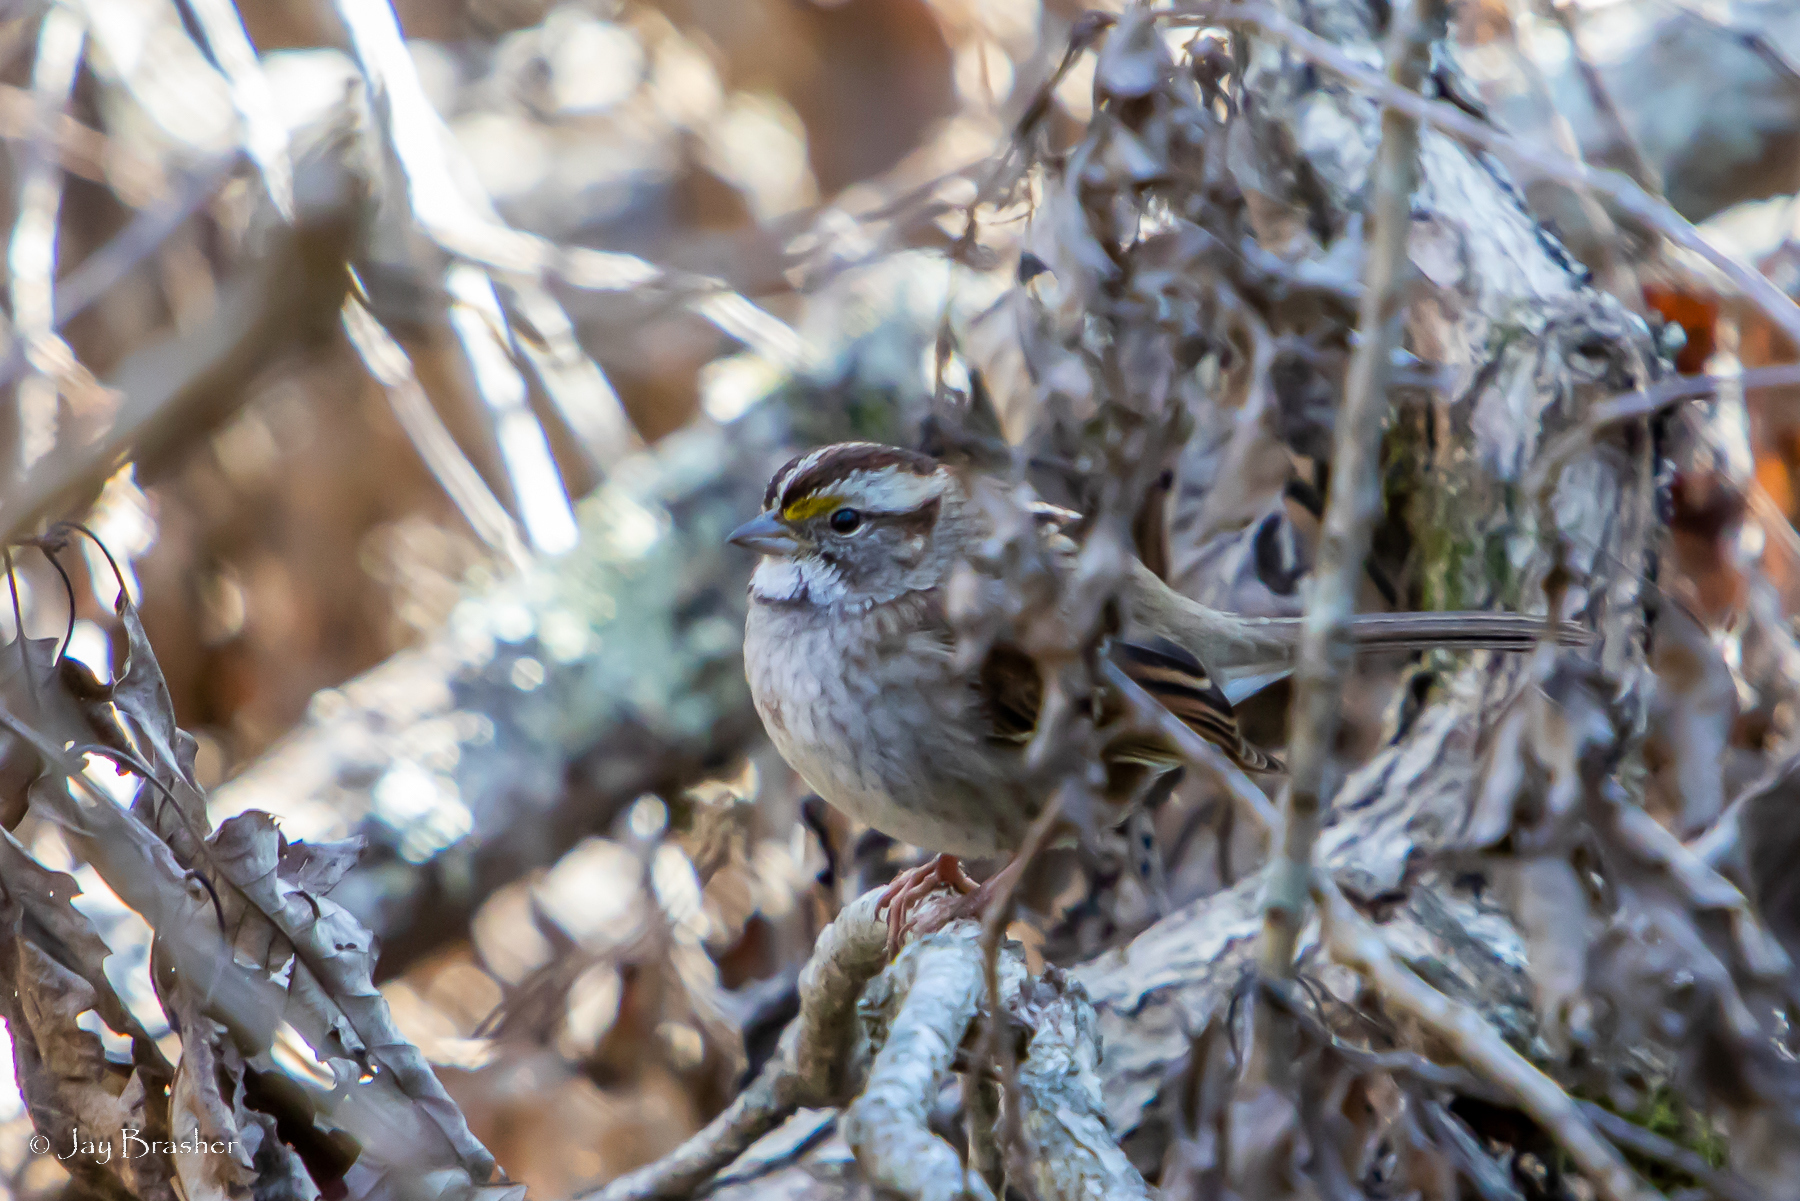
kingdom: Animalia
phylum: Chordata
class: Aves
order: Passeriformes
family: Passerellidae
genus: Zonotrichia
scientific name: Zonotrichia albicollis
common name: White-throated sparrow
